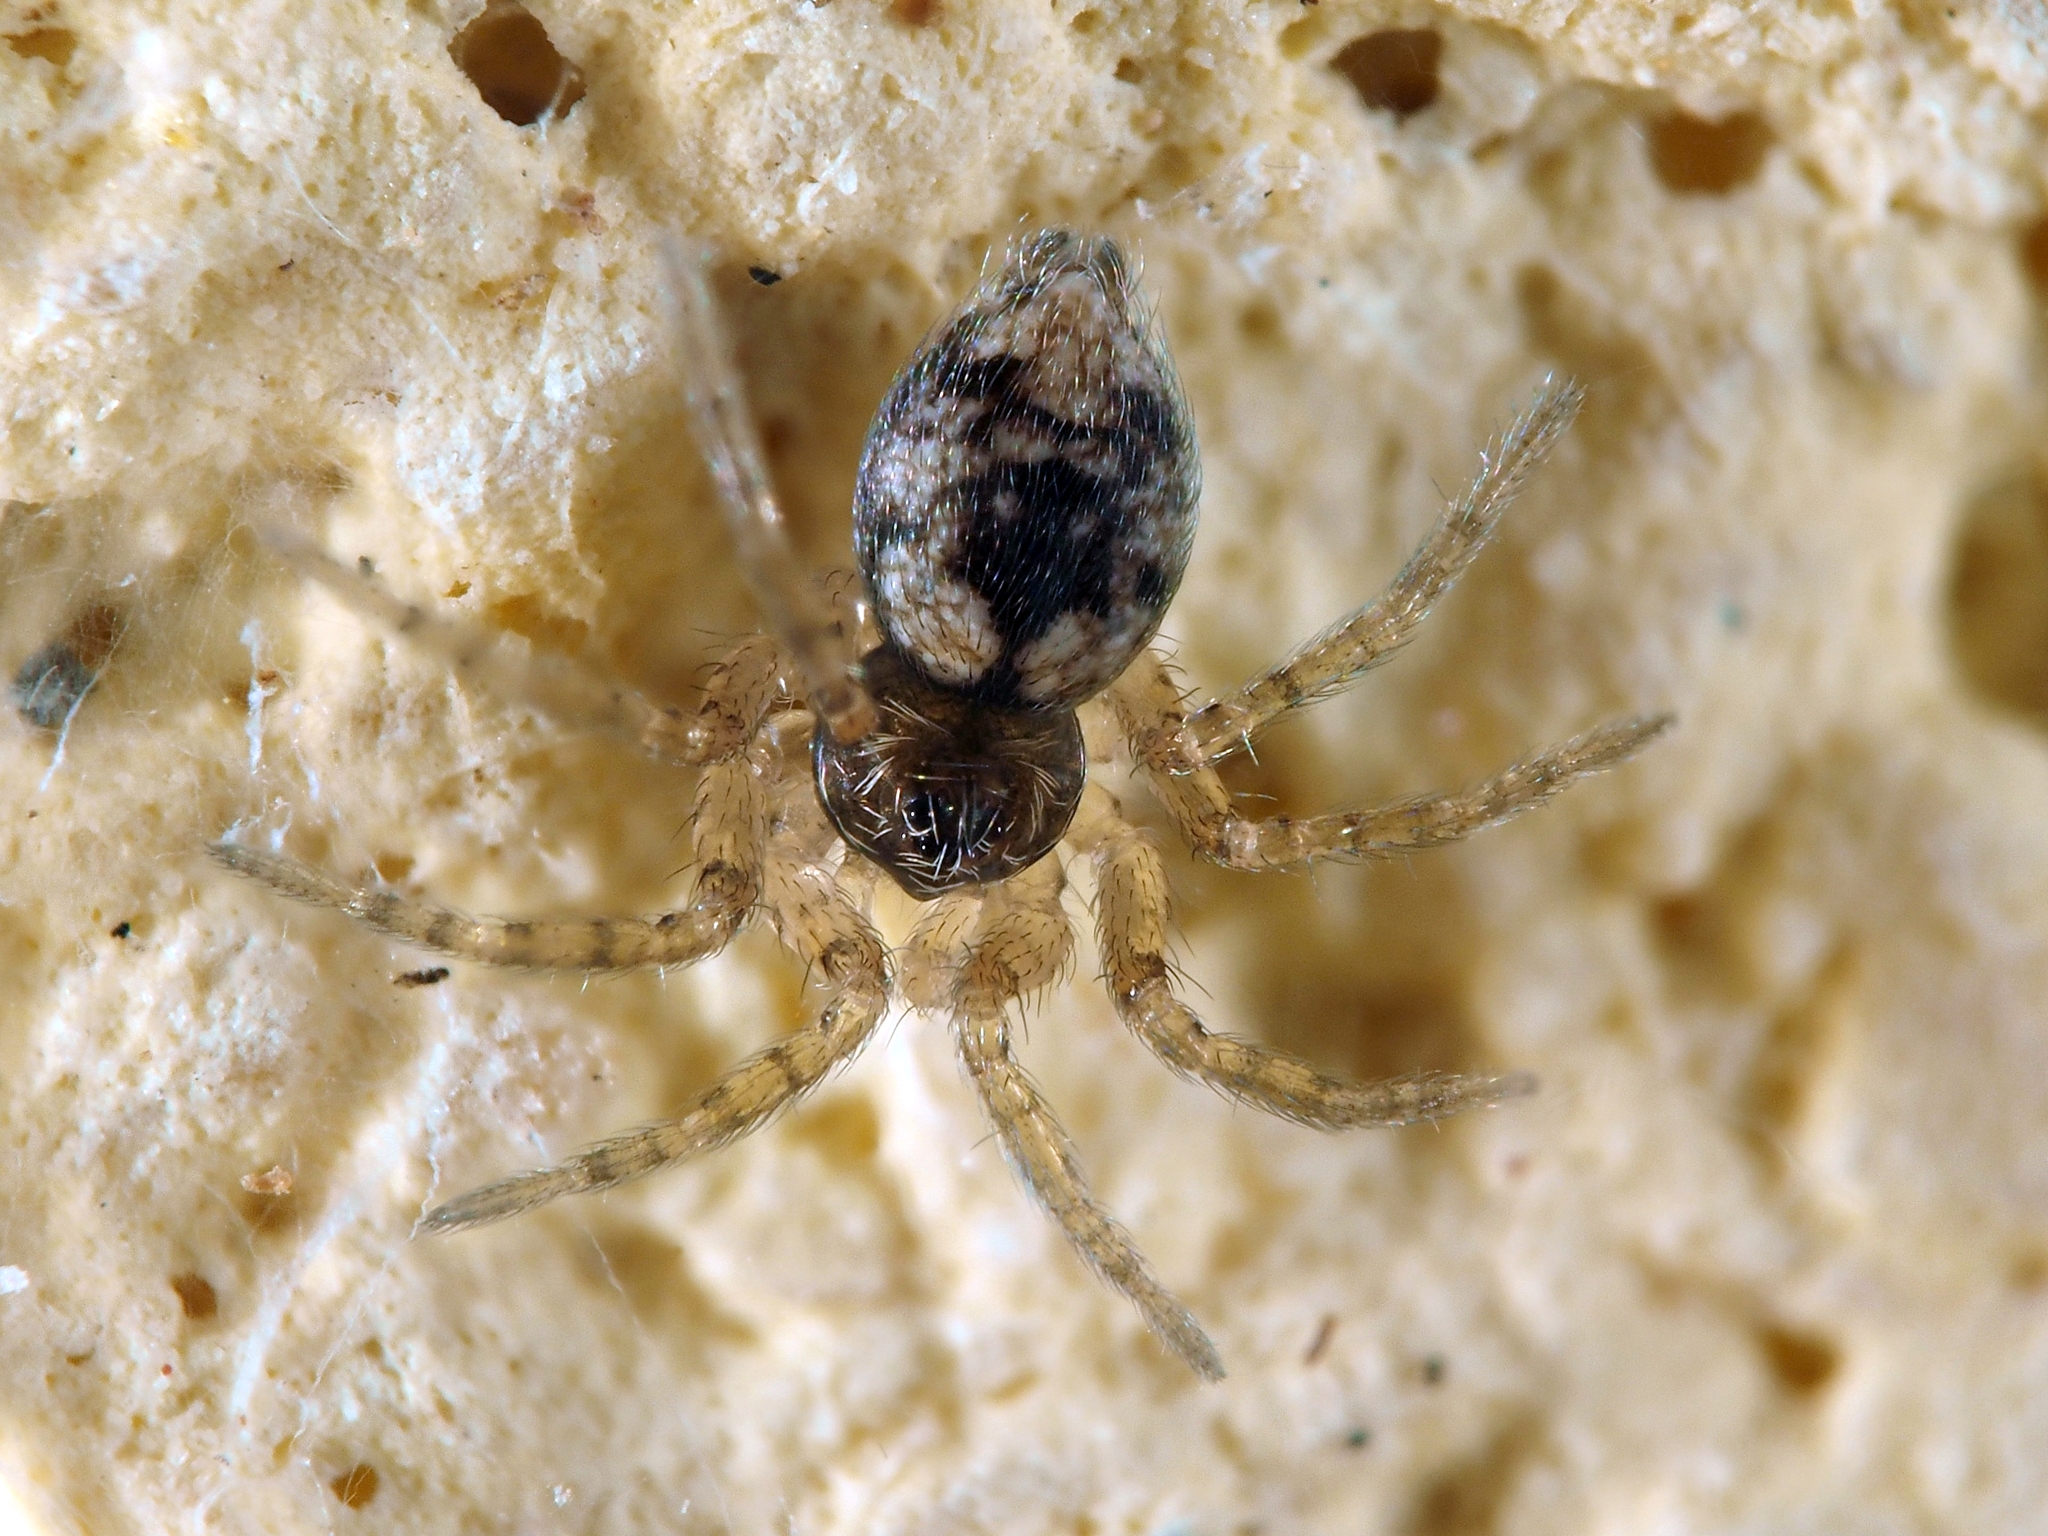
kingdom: Animalia
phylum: Arthropoda
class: Arachnida
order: Araneae
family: Oecobiidae
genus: Oecobius
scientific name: Oecobius maculatus
